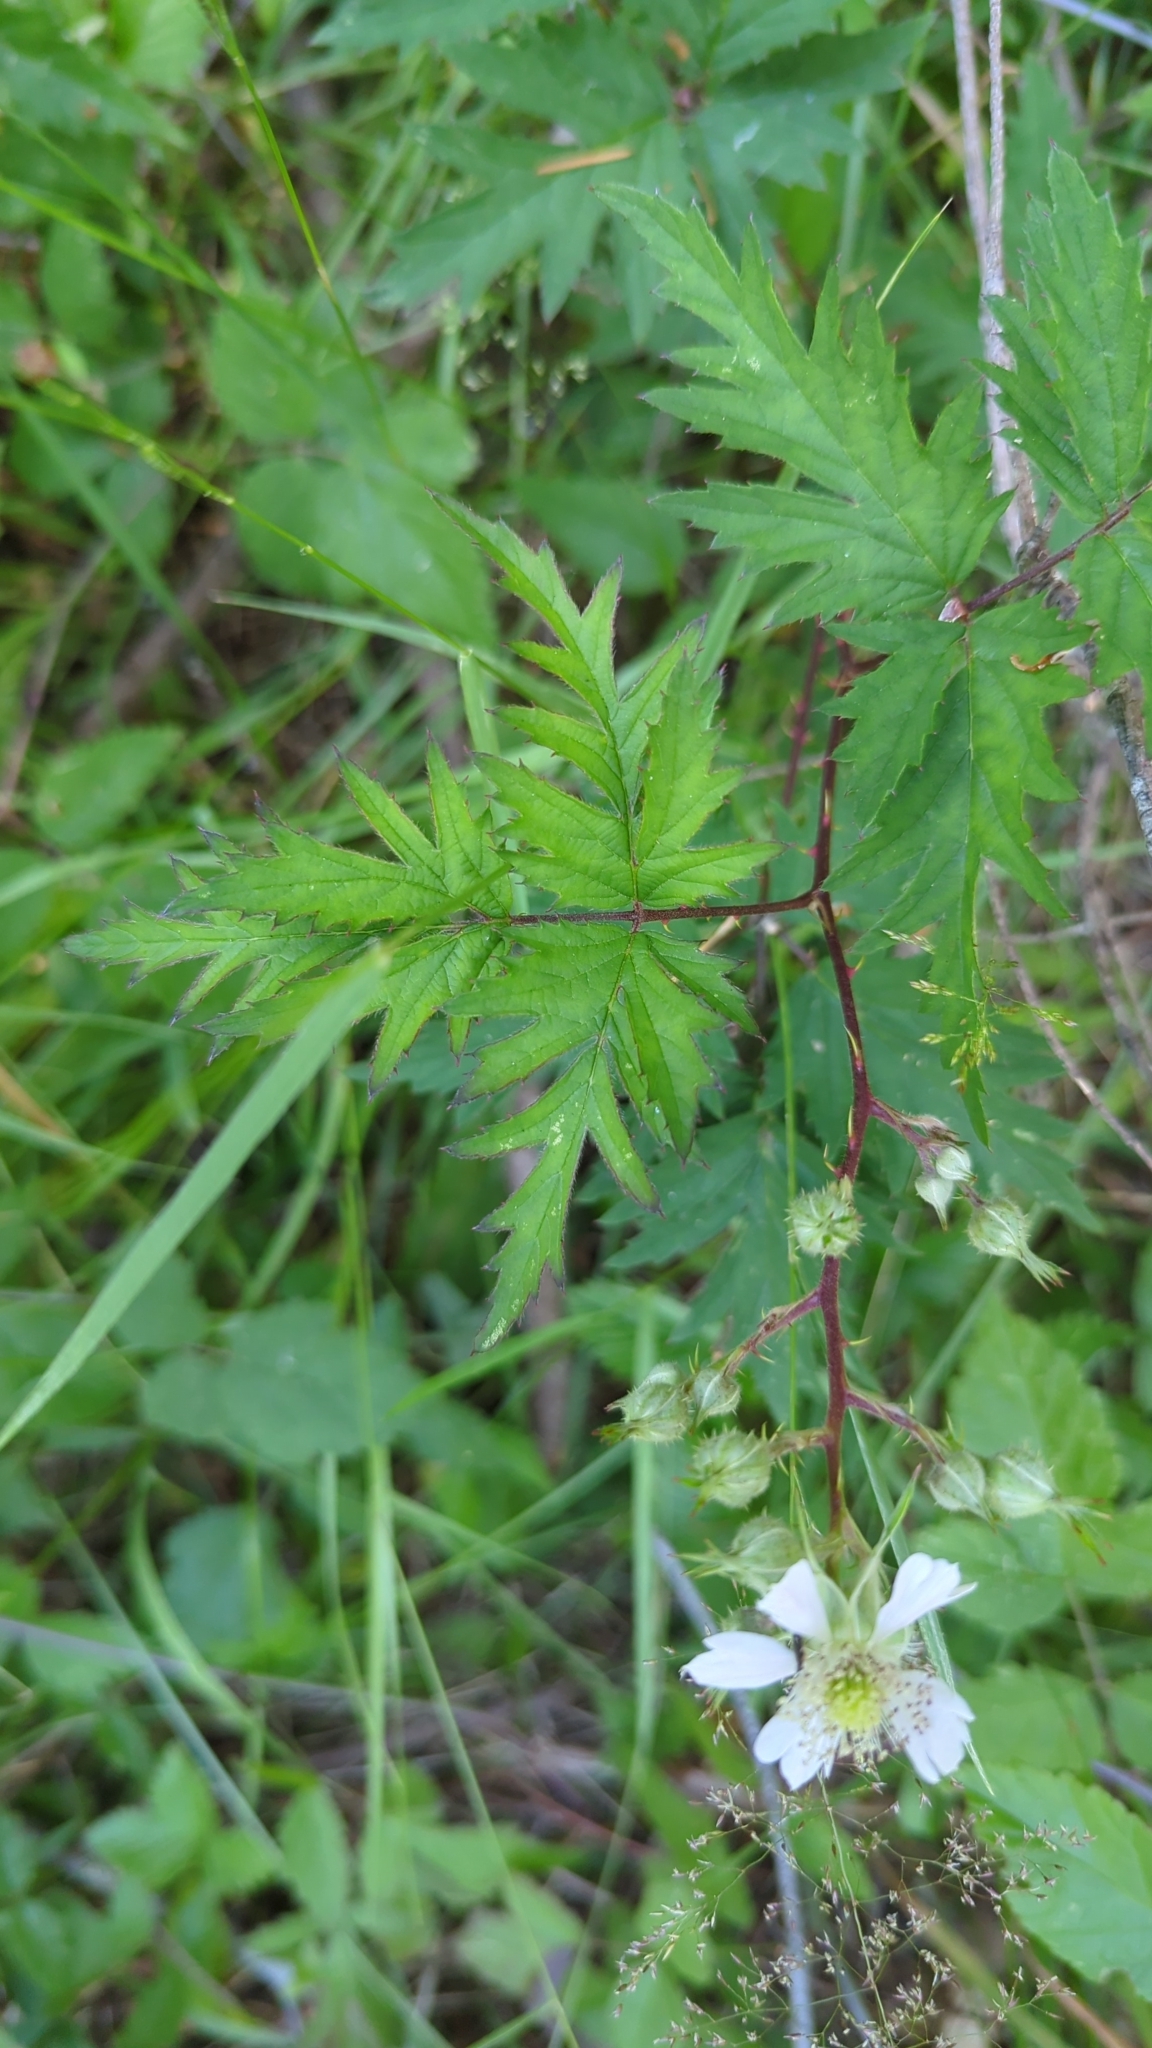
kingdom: Plantae
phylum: Tracheophyta
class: Magnoliopsida
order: Rosales
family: Rosaceae
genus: Rubus
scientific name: Rubus laciniatus
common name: Evergreen blackberry
